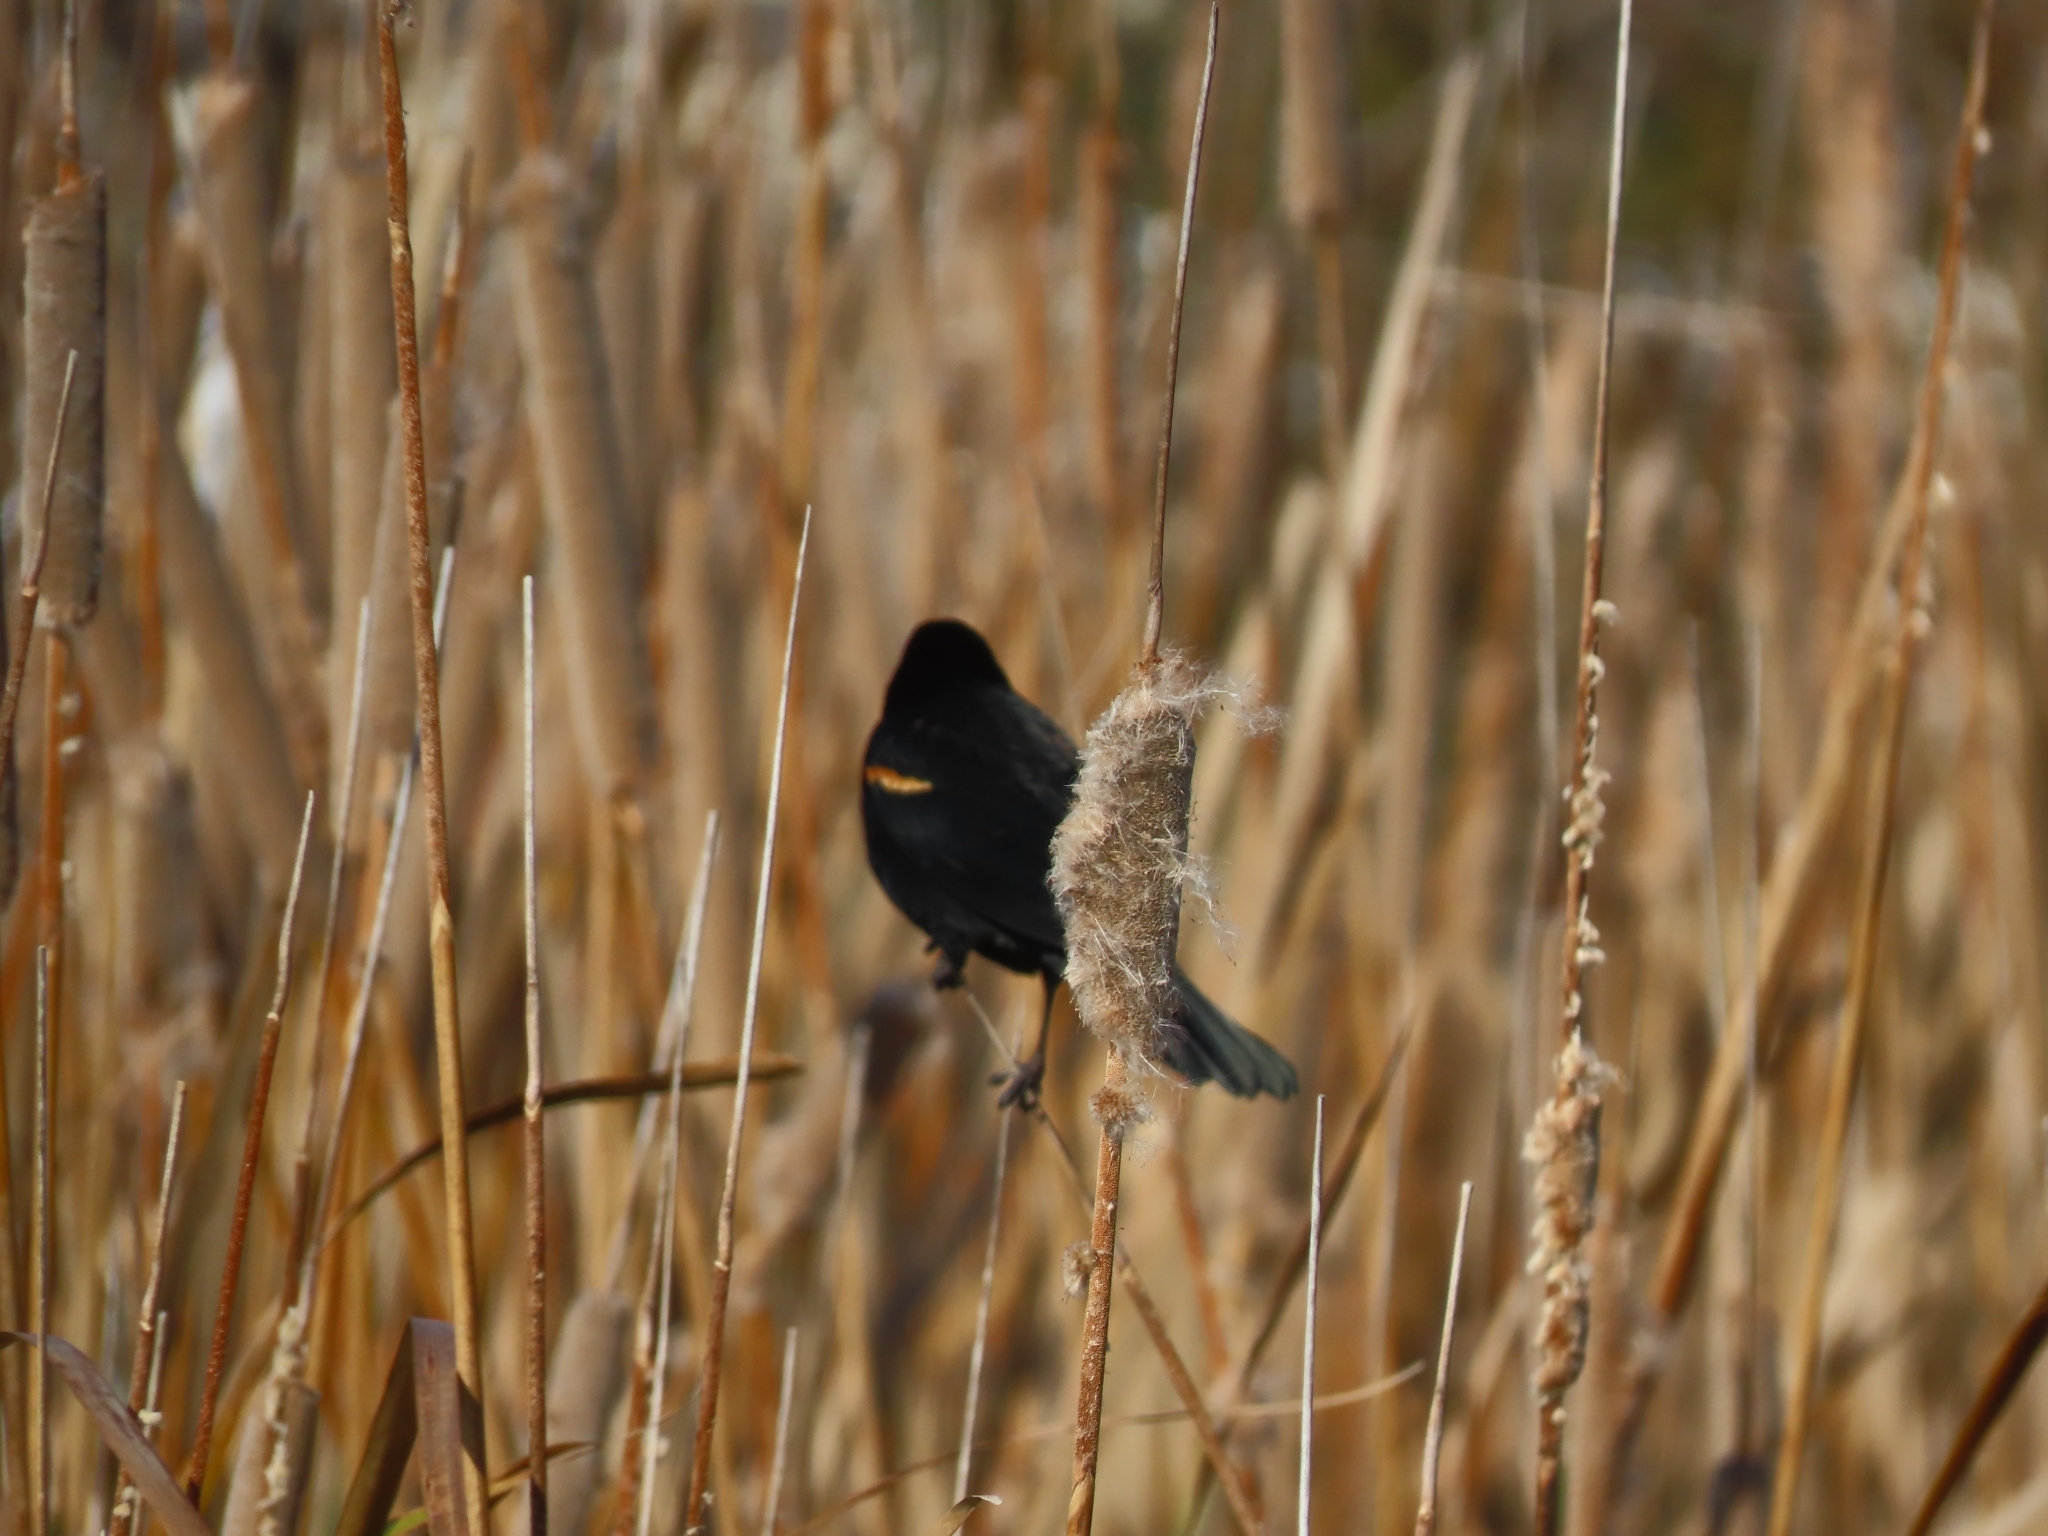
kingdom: Animalia
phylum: Chordata
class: Aves
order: Passeriformes
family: Icteridae
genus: Agelaius
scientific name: Agelaius phoeniceus
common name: Red-winged blackbird
